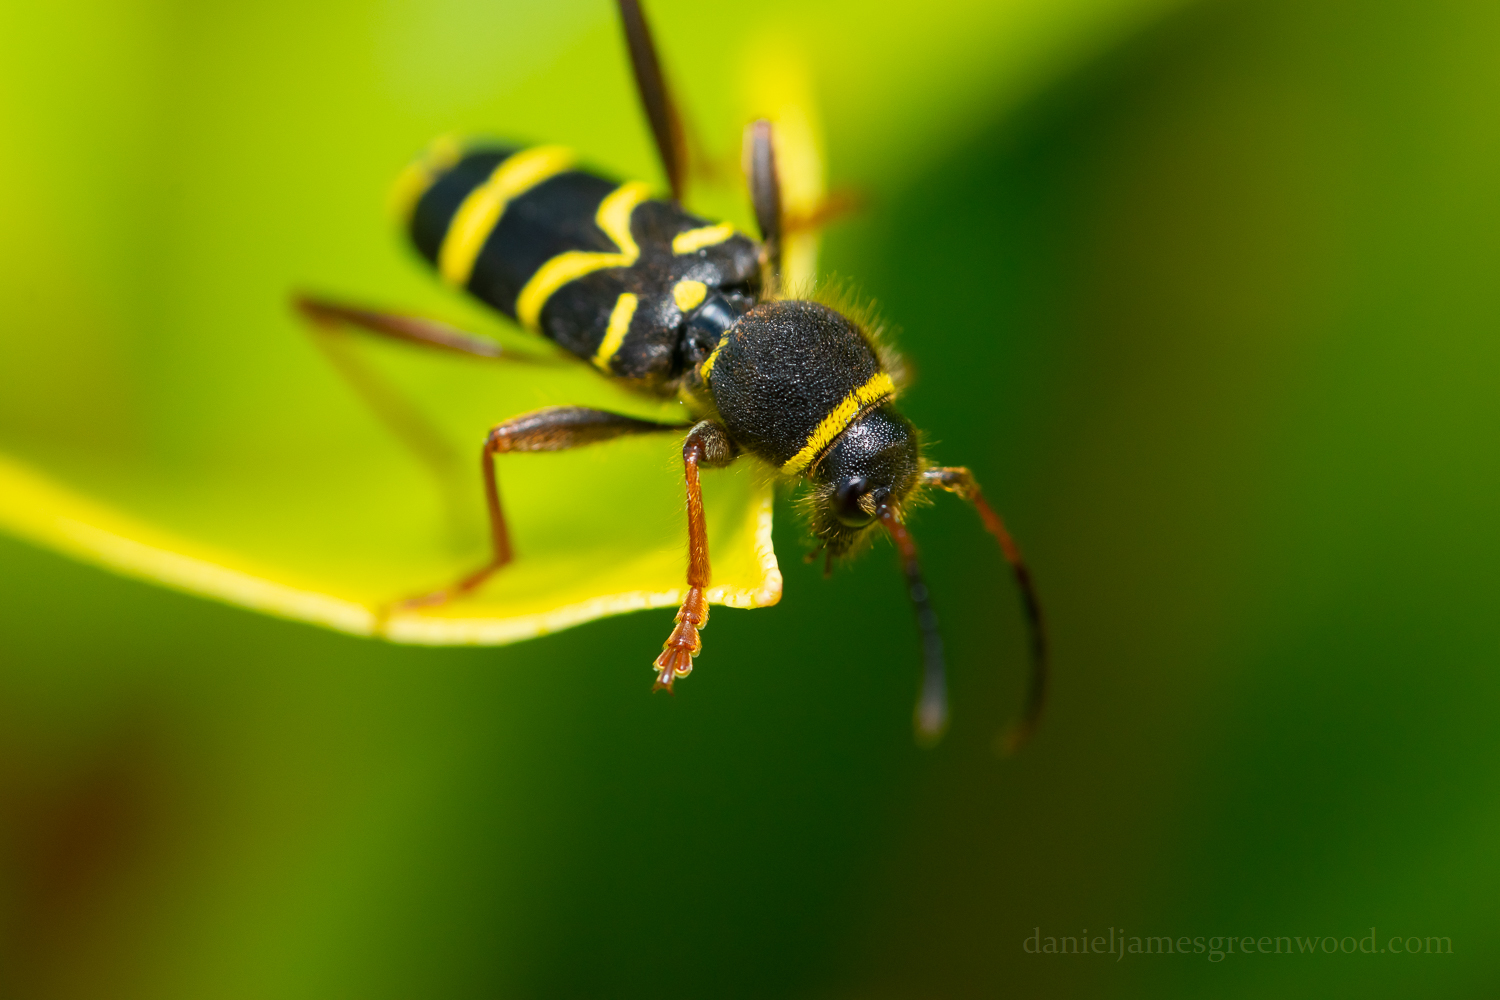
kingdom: Animalia
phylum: Arthropoda
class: Insecta
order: Coleoptera
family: Cerambycidae
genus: Clytus
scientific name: Clytus arietis
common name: Wasp beetle
